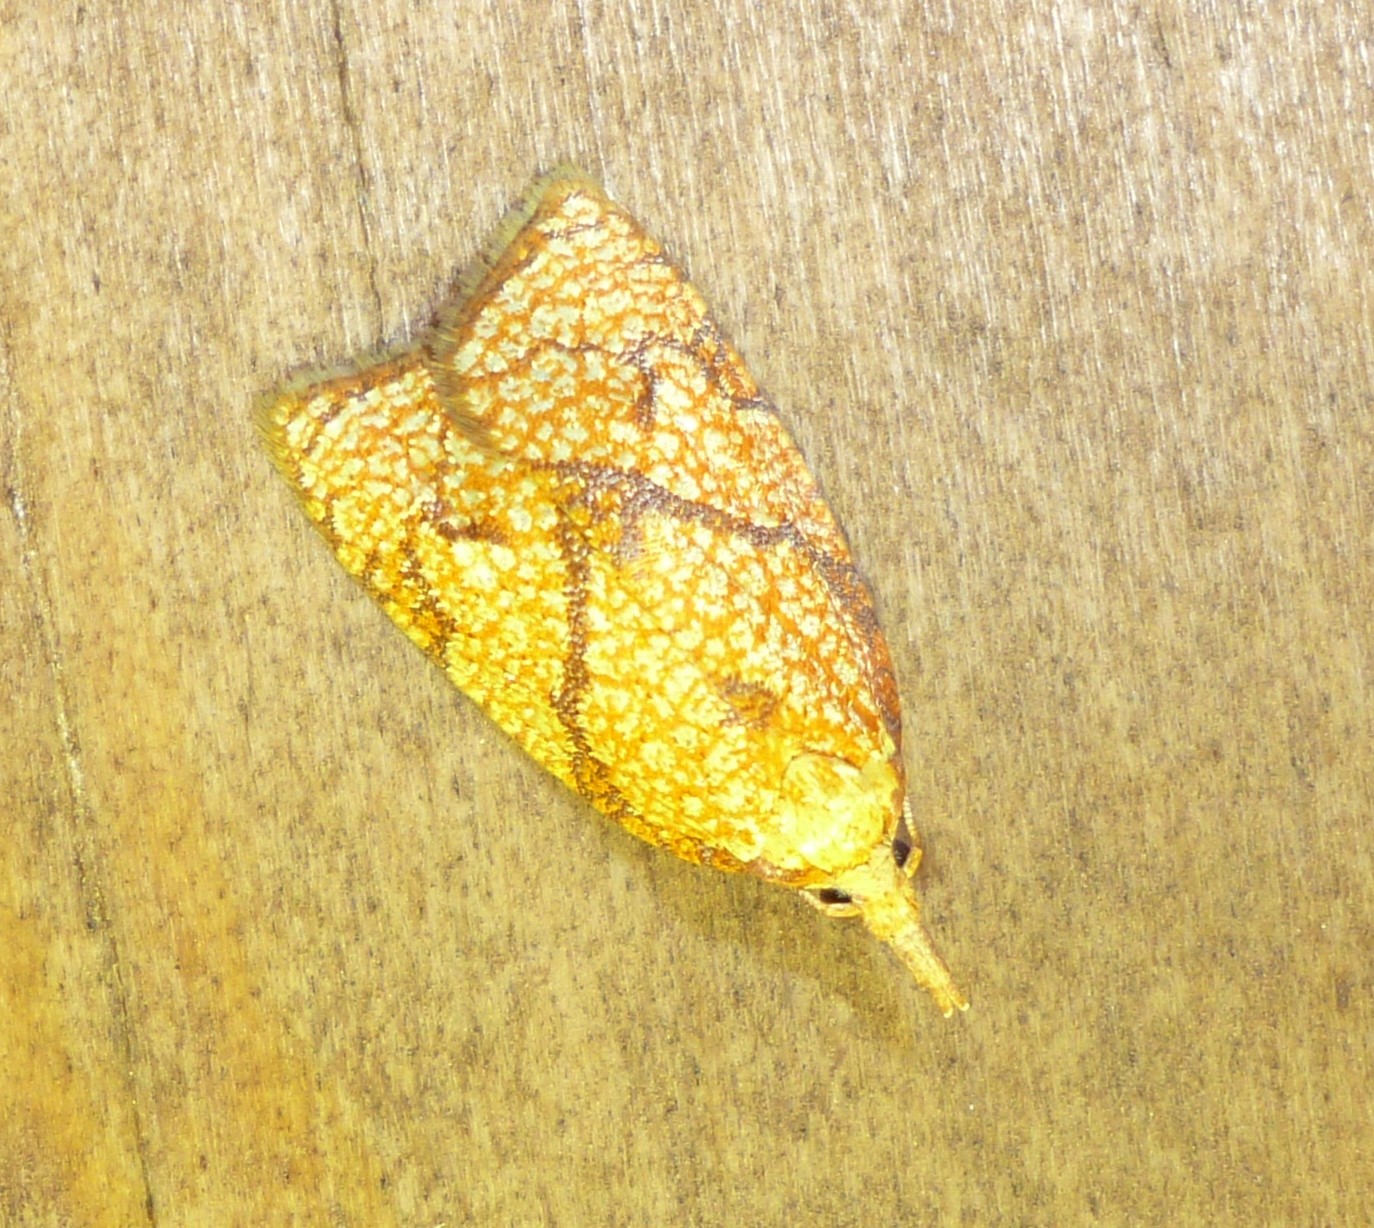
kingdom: Animalia
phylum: Arthropoda
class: Insecta
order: Lepidoptera
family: Tortricidae
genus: Cenopis
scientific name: Cenopis reticulatana
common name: Reticulated fruitworm moth
